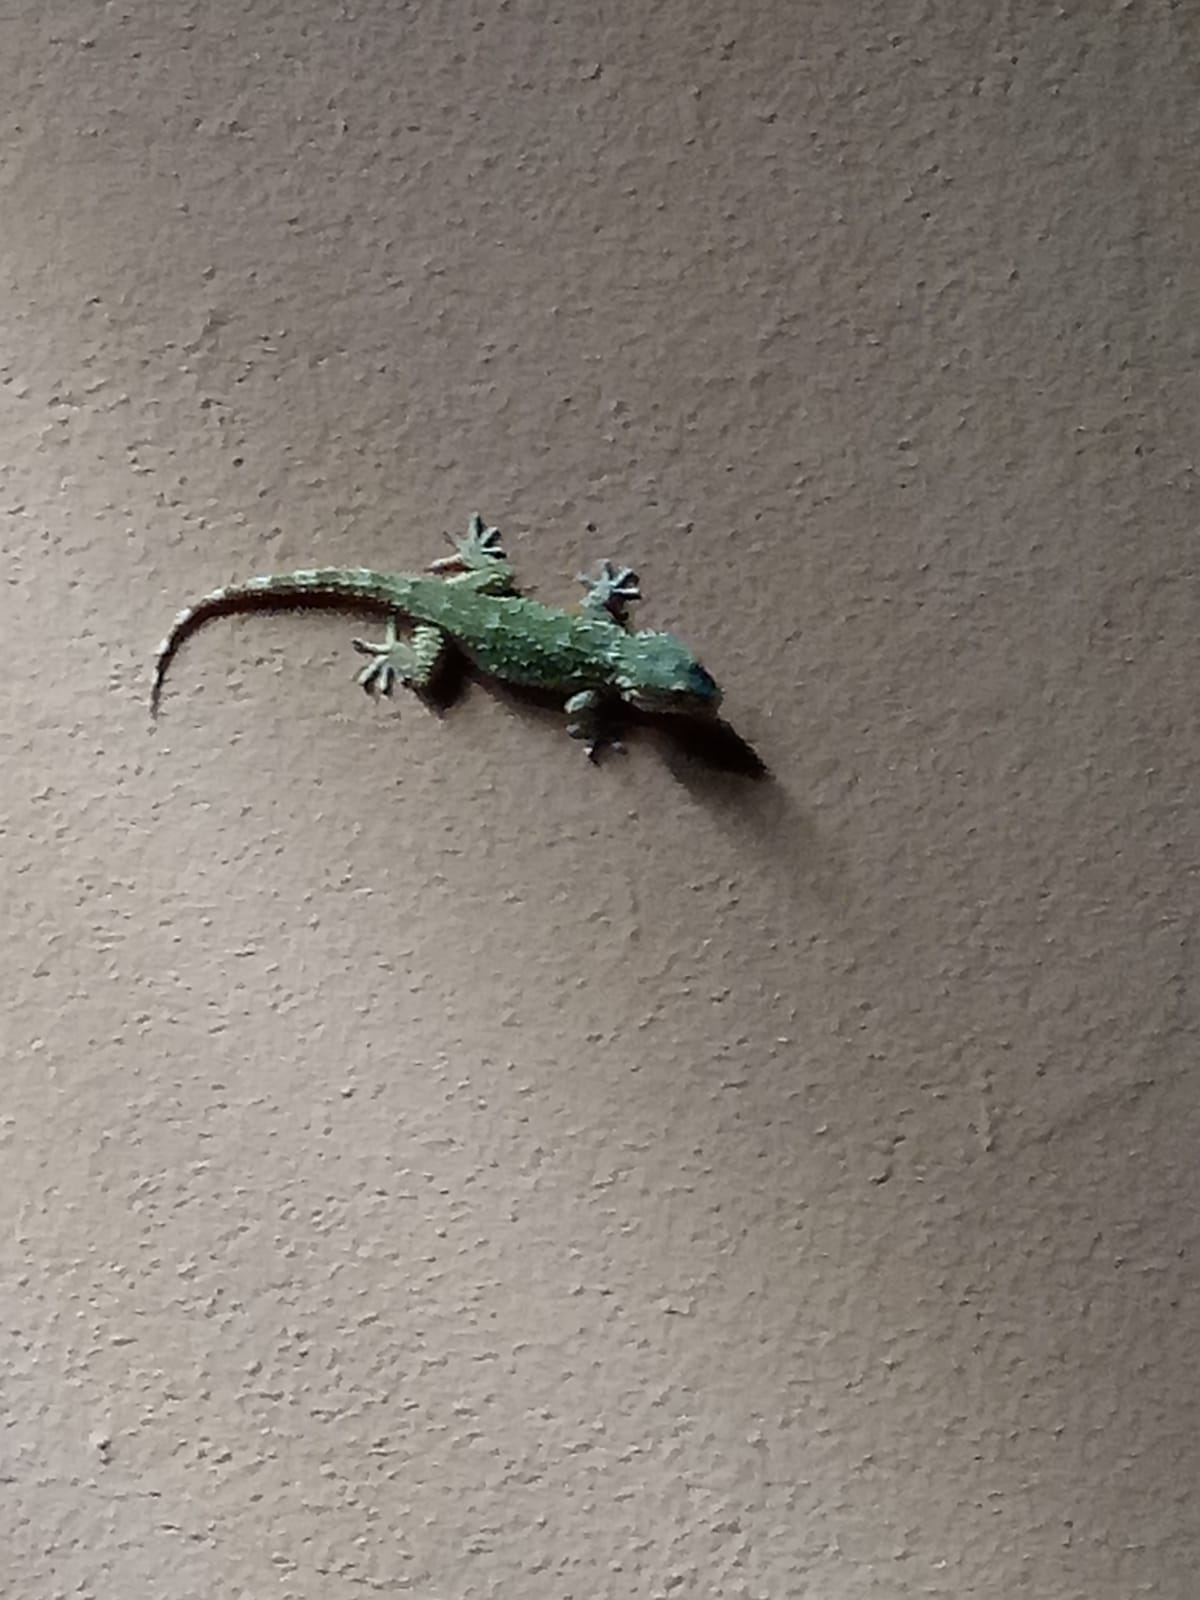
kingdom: Animalia
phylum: Chordata
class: Squamata
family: Phyllodactylidae
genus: Tarentola
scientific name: Tarentola mauritanica
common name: Moorish gecko
